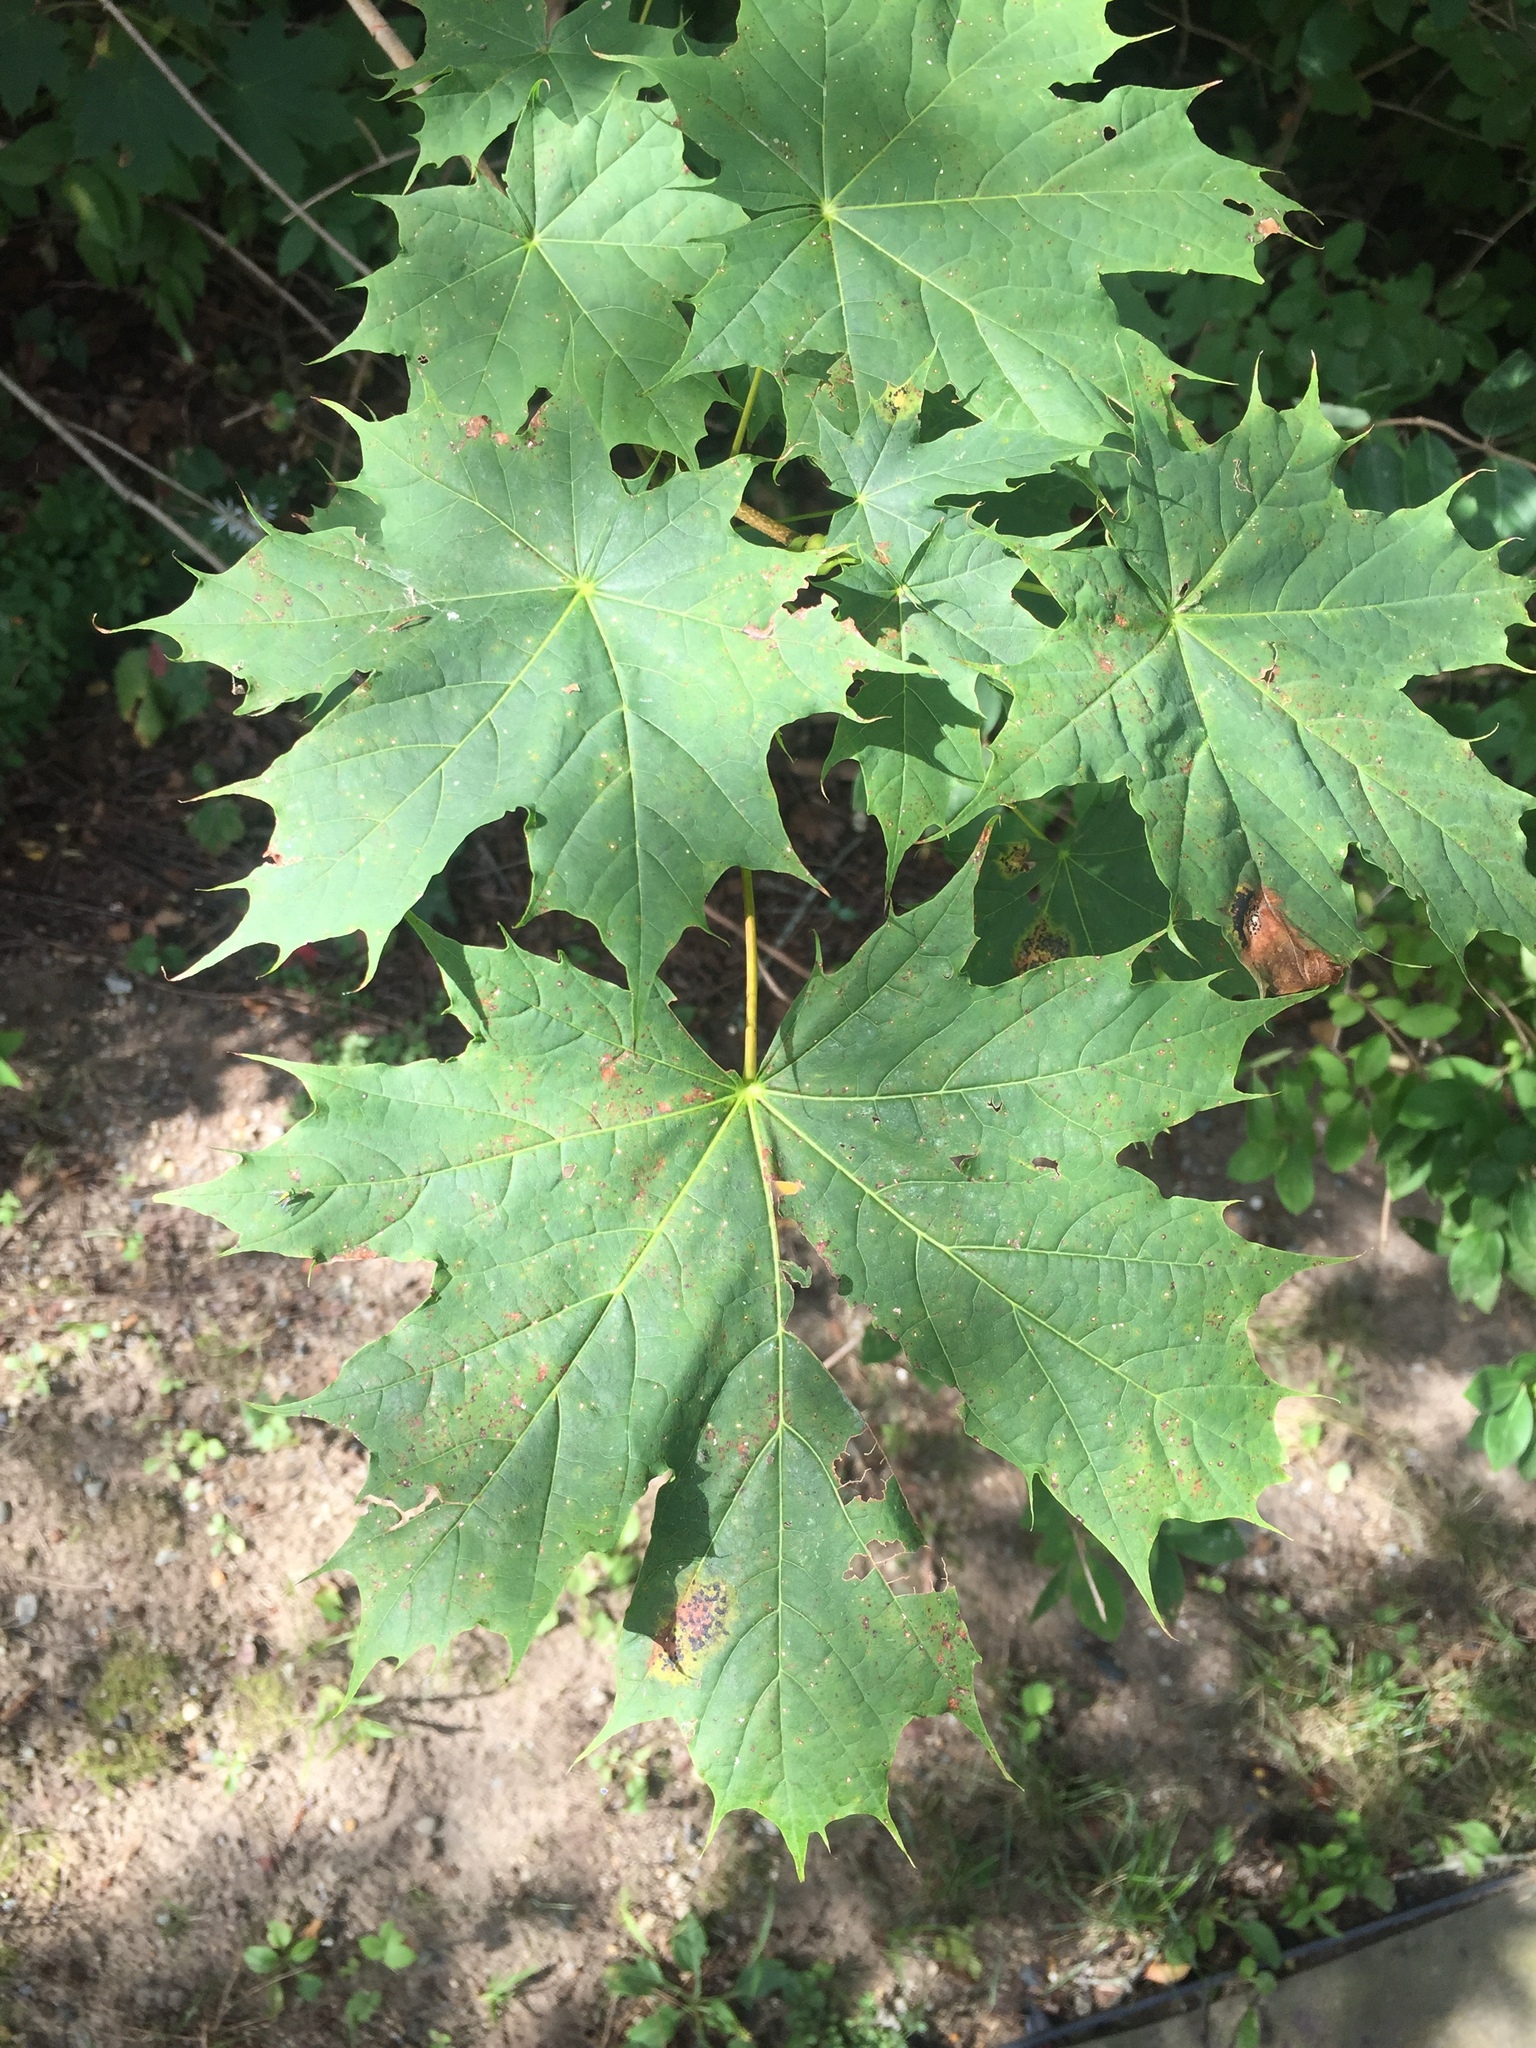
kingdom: Plantae
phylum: Tracheophyta
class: Magnoliopsida
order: Sapindales
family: Sapindaceae
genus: Acer
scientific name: Acer platanoides
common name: Norway maple
